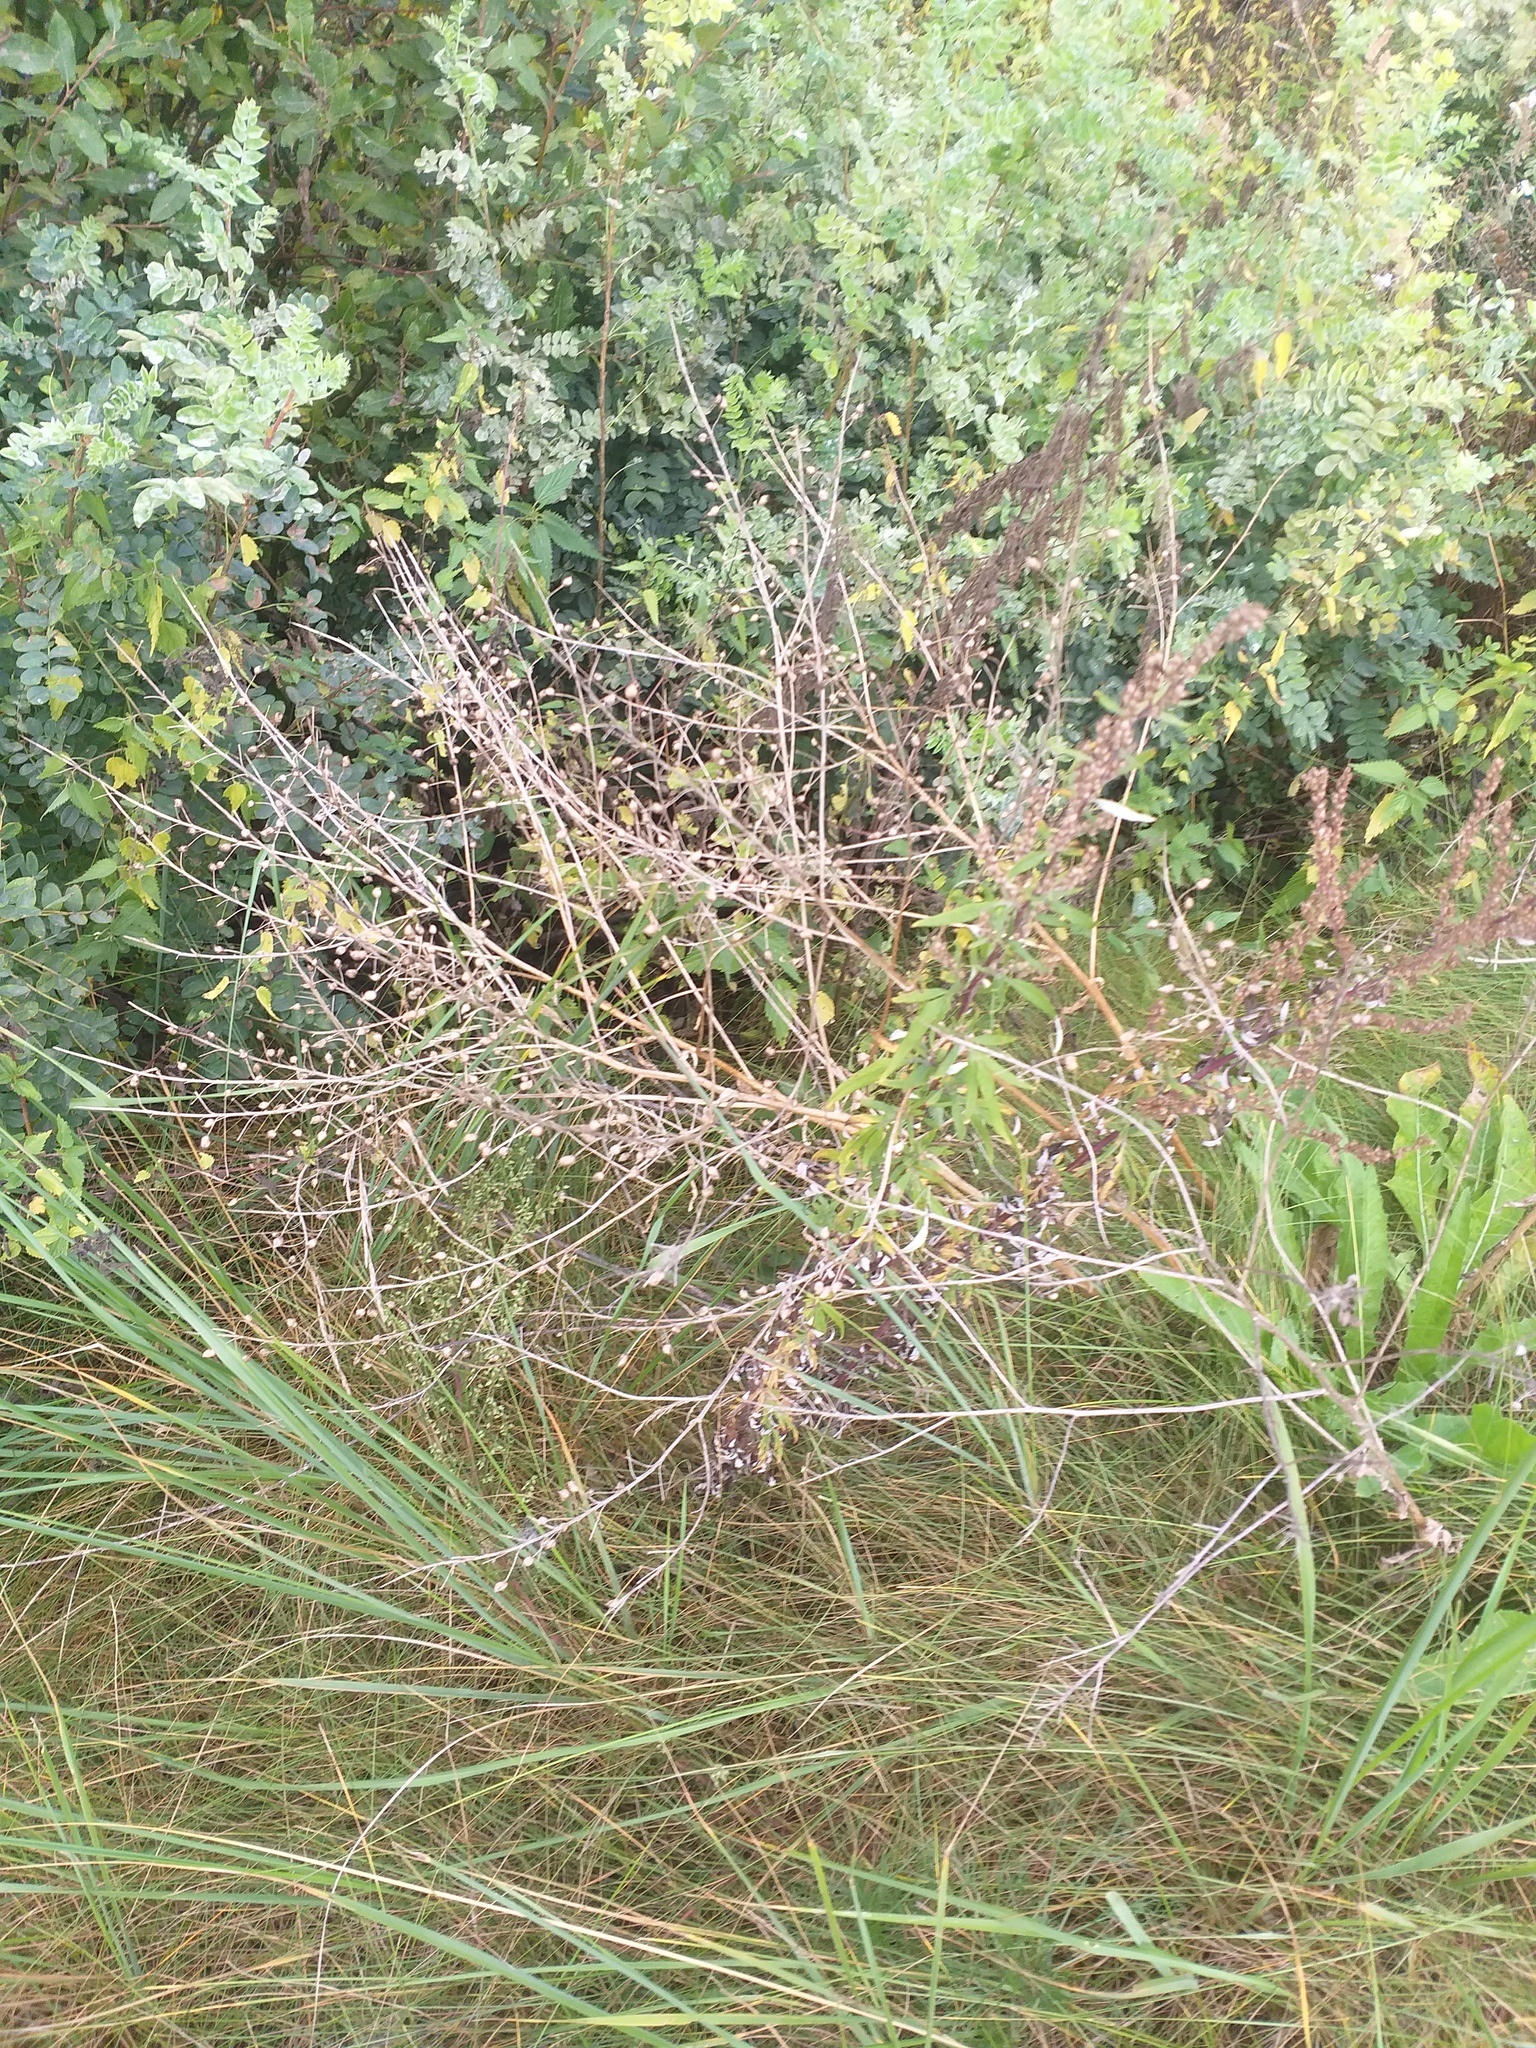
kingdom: Plantae
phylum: Tracheophyta
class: Magnoliopsida
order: Brassicales
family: Brassicaceae
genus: Bunias
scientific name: Bunias orientalis
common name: Warty-cabbage
